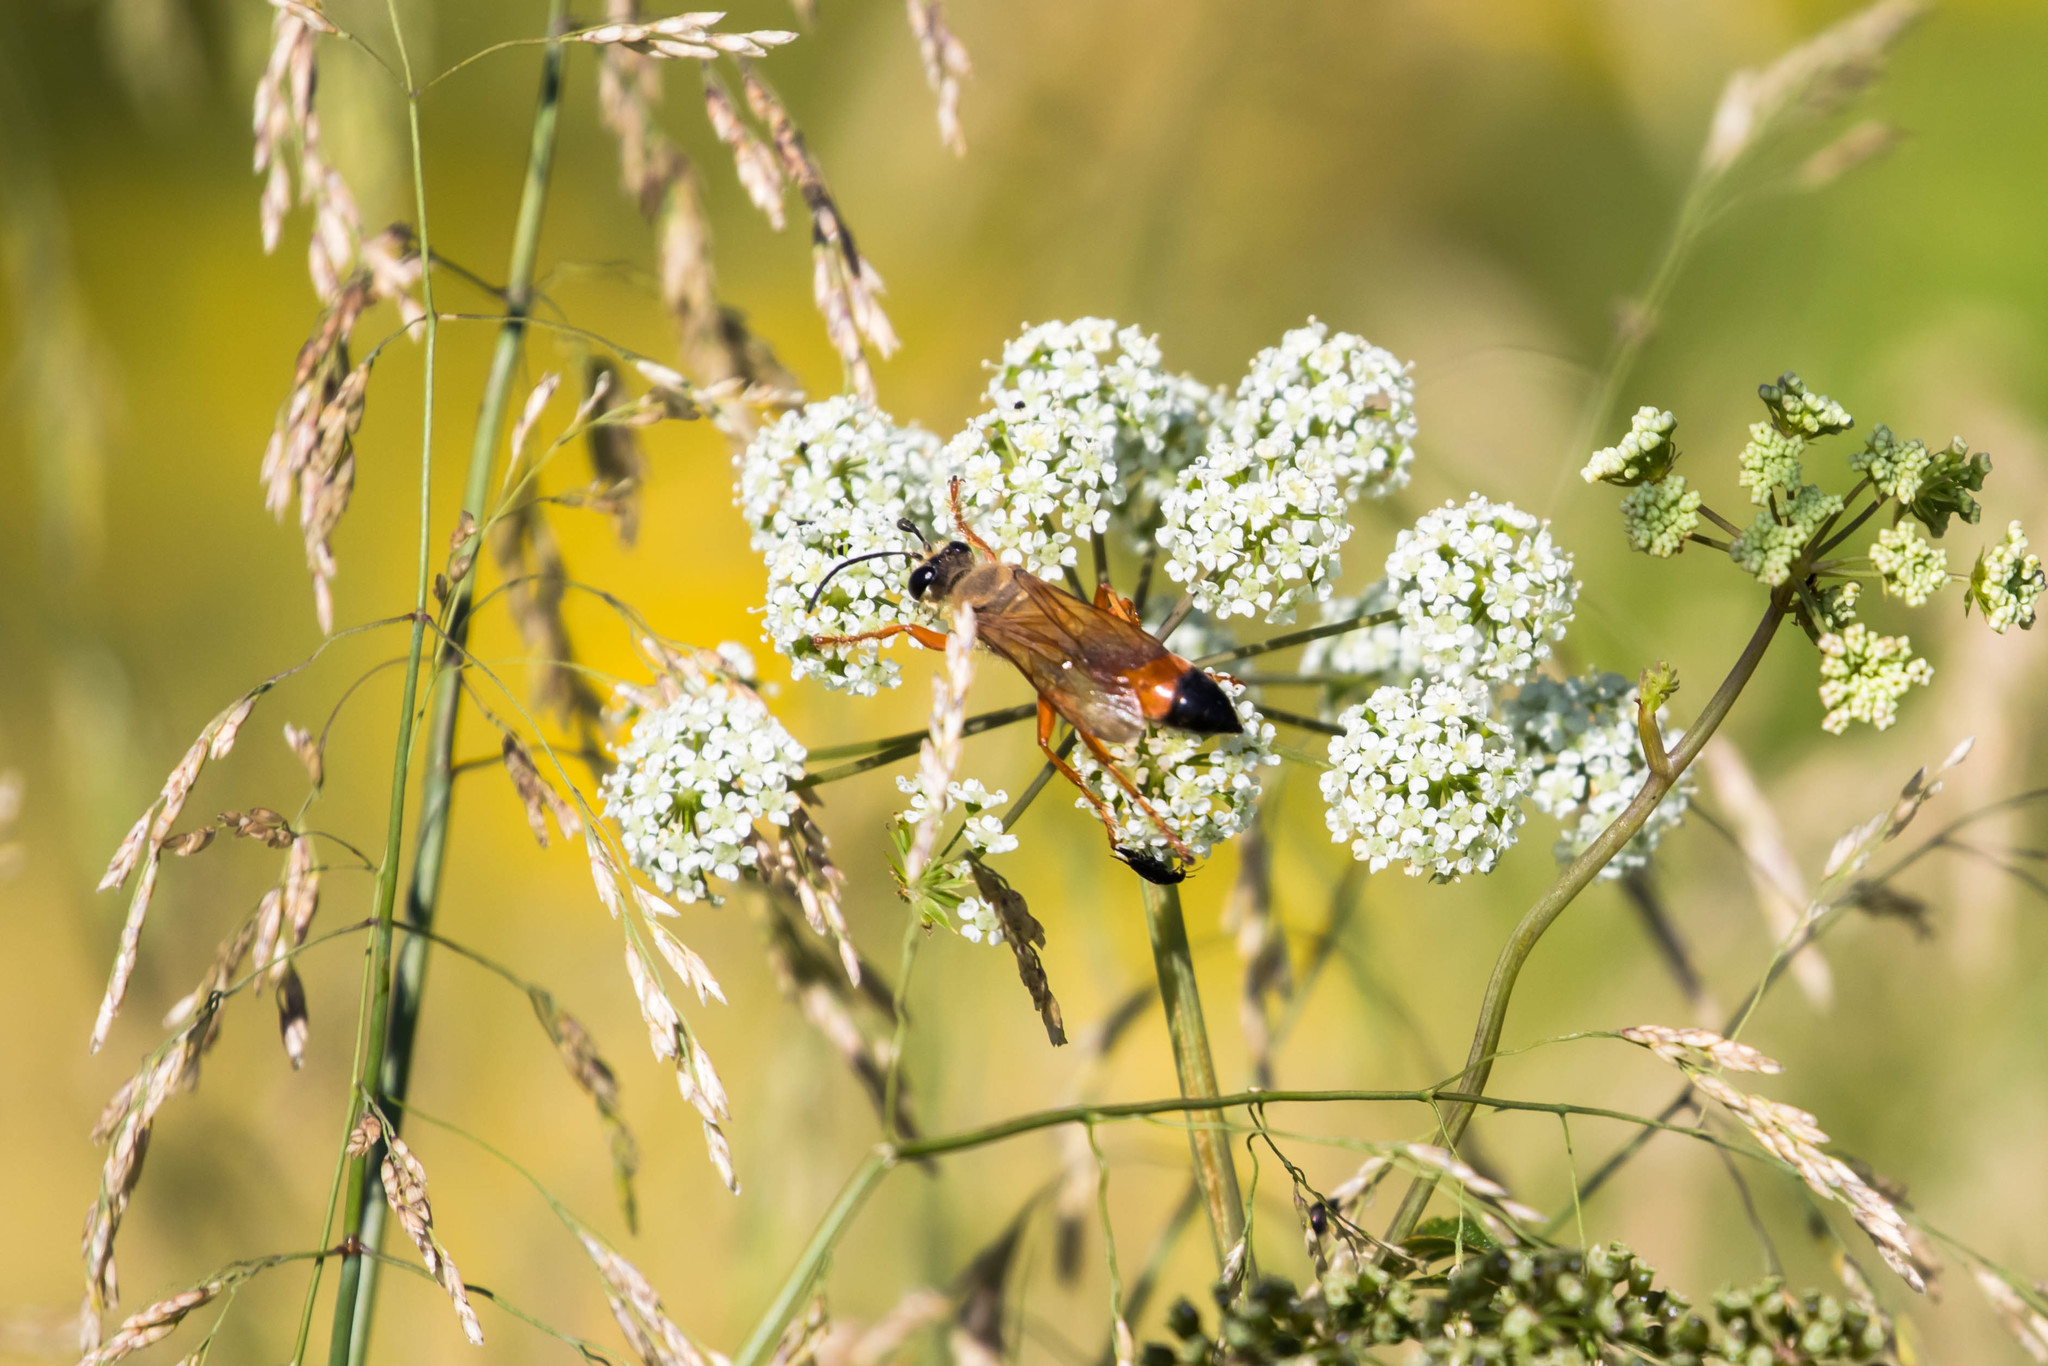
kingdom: Animalia
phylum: Arthropoda
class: Insecta
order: Hymenoptera
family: Sphecidae
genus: Sphex
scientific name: Sphex ichneumoneus
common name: Great golden digger wasp
